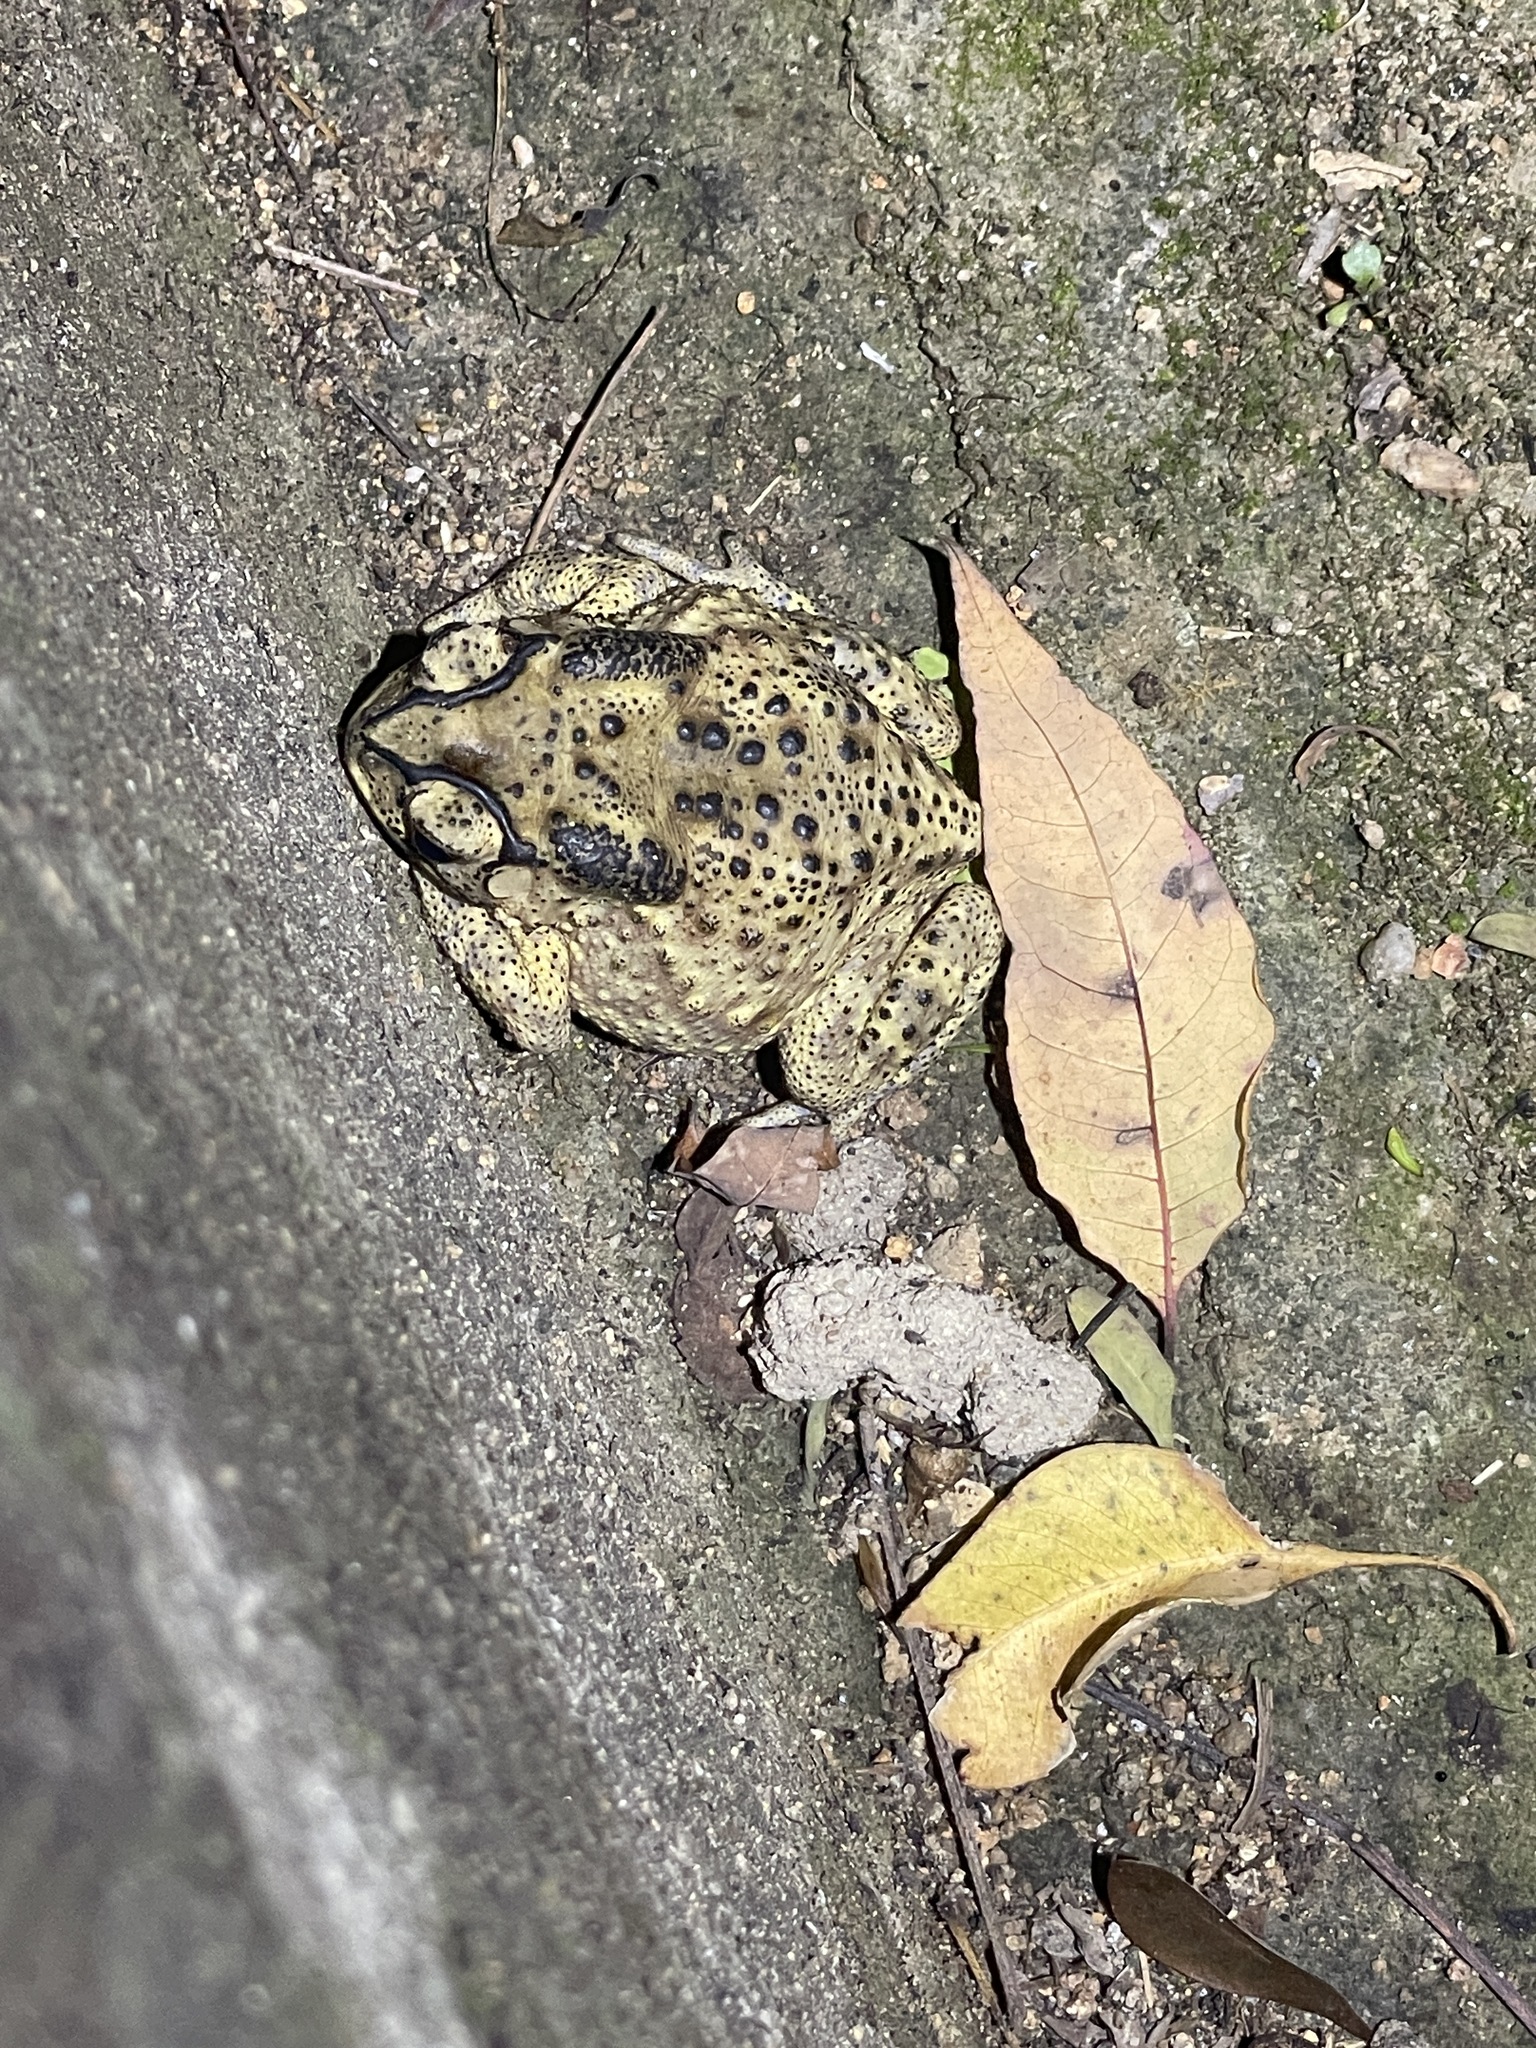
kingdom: Animalia
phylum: Chordata
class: Amphibia
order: Anura
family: Bufonidae
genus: Duttaphrynus
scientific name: Duttaphrynus melanostictus
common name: Common sunda toad
